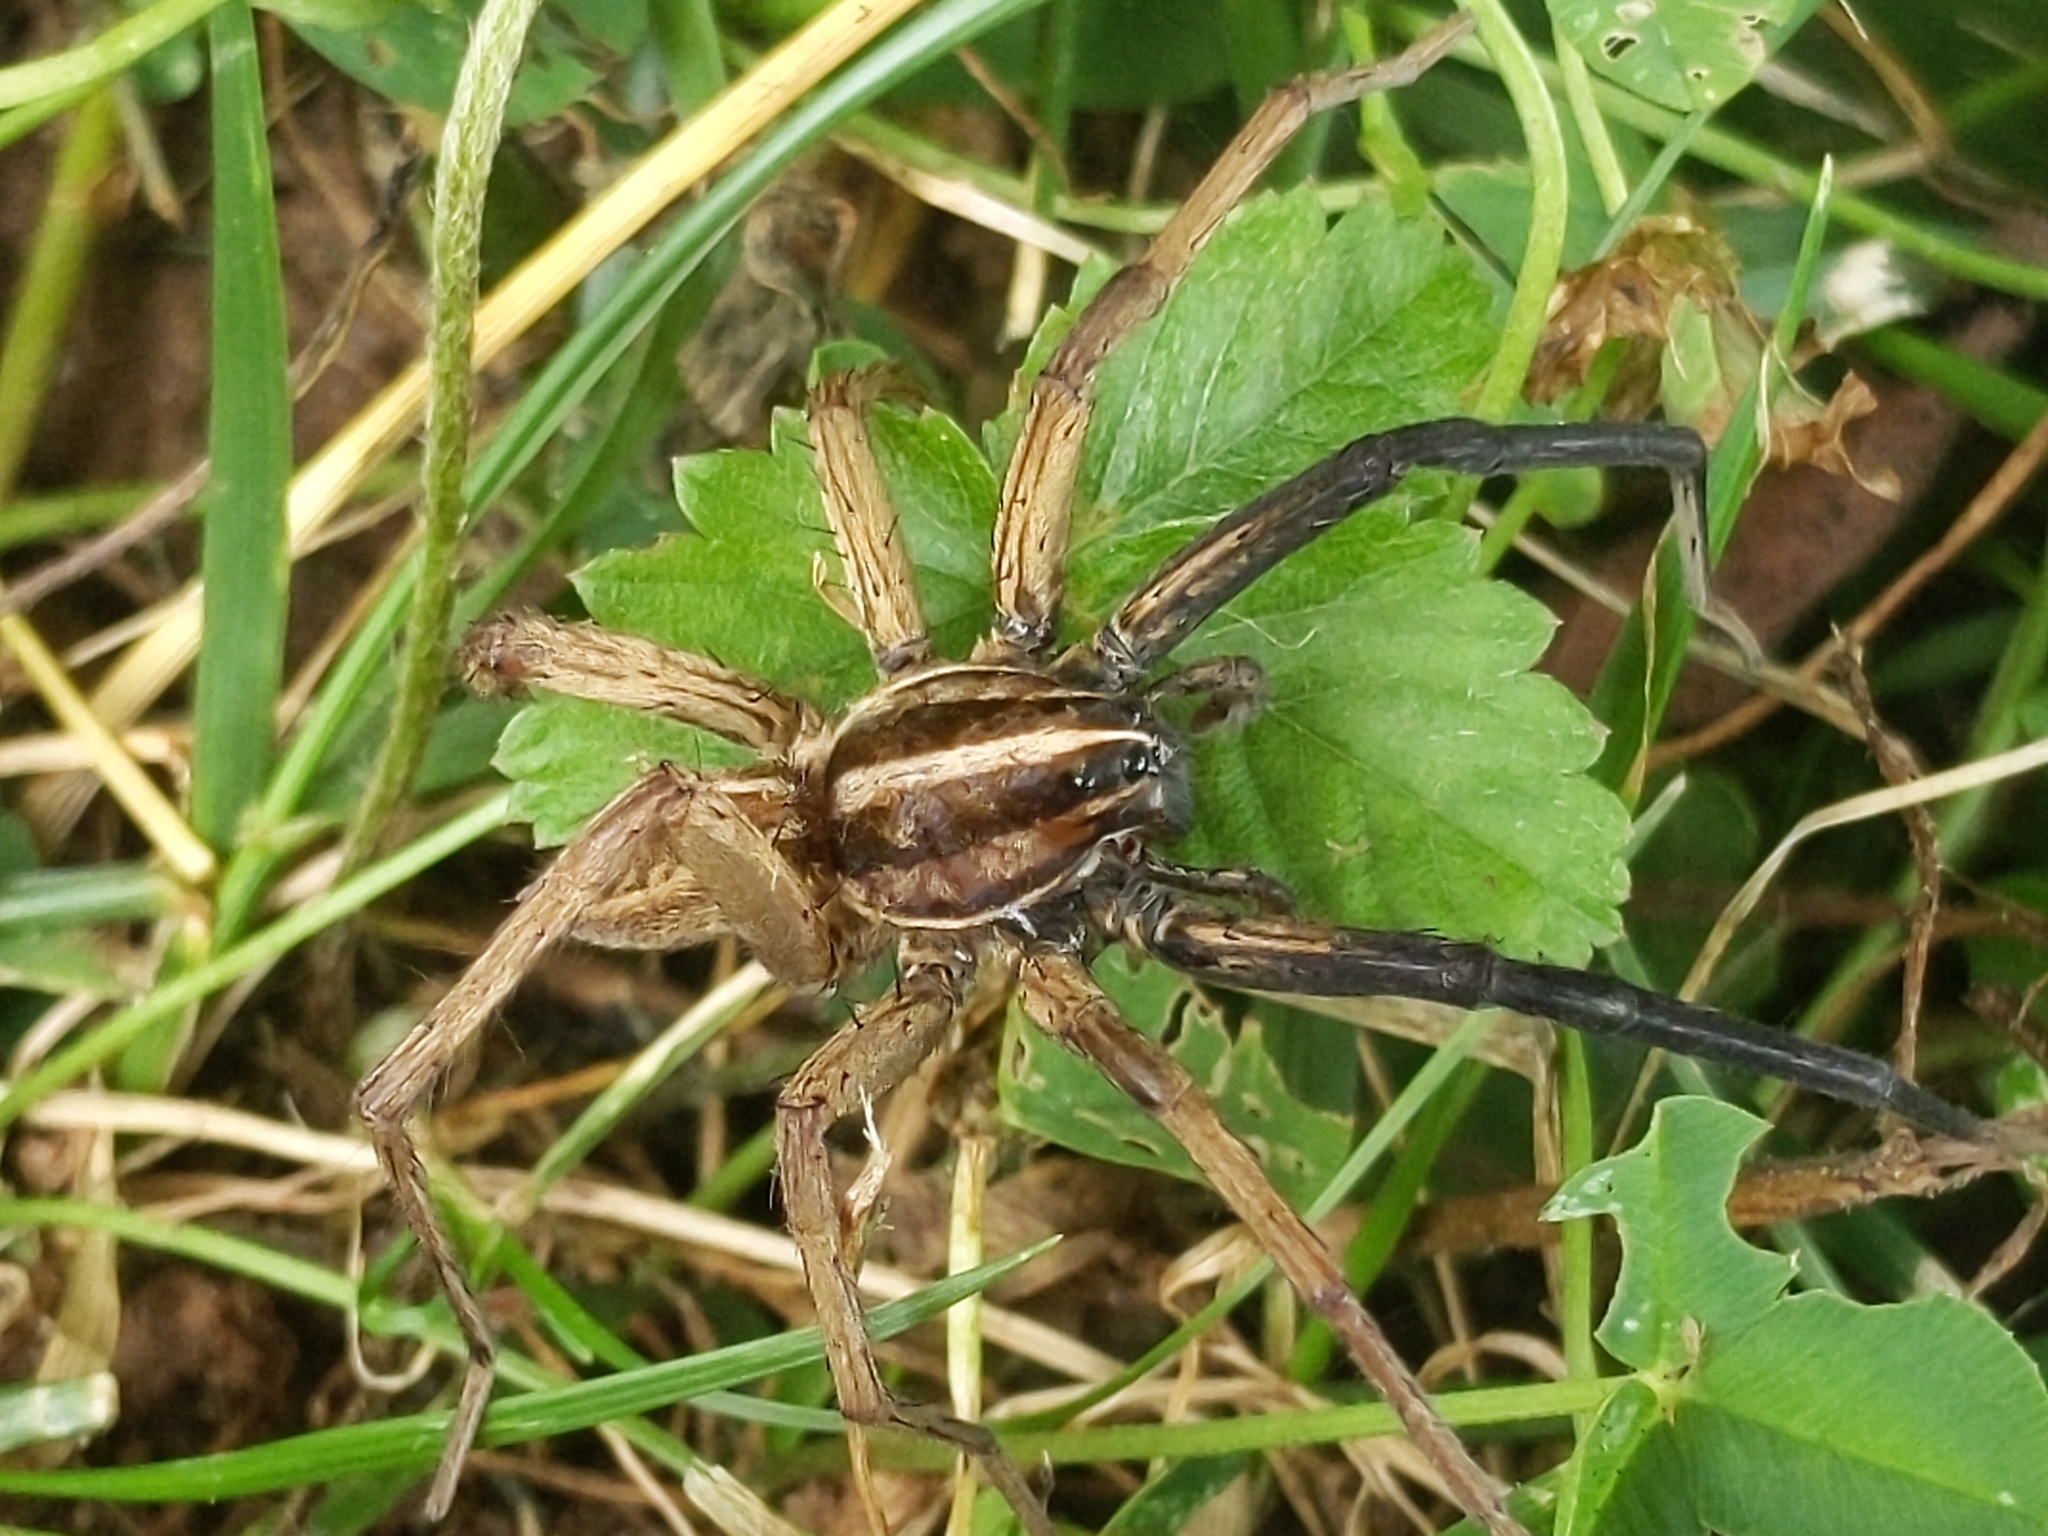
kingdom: Animalia
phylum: Arthropoda
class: Arachnida
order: Araneae
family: Lycosidae
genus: Rabidosa
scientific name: Rabidosa rabida
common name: Rabid wolf spider
